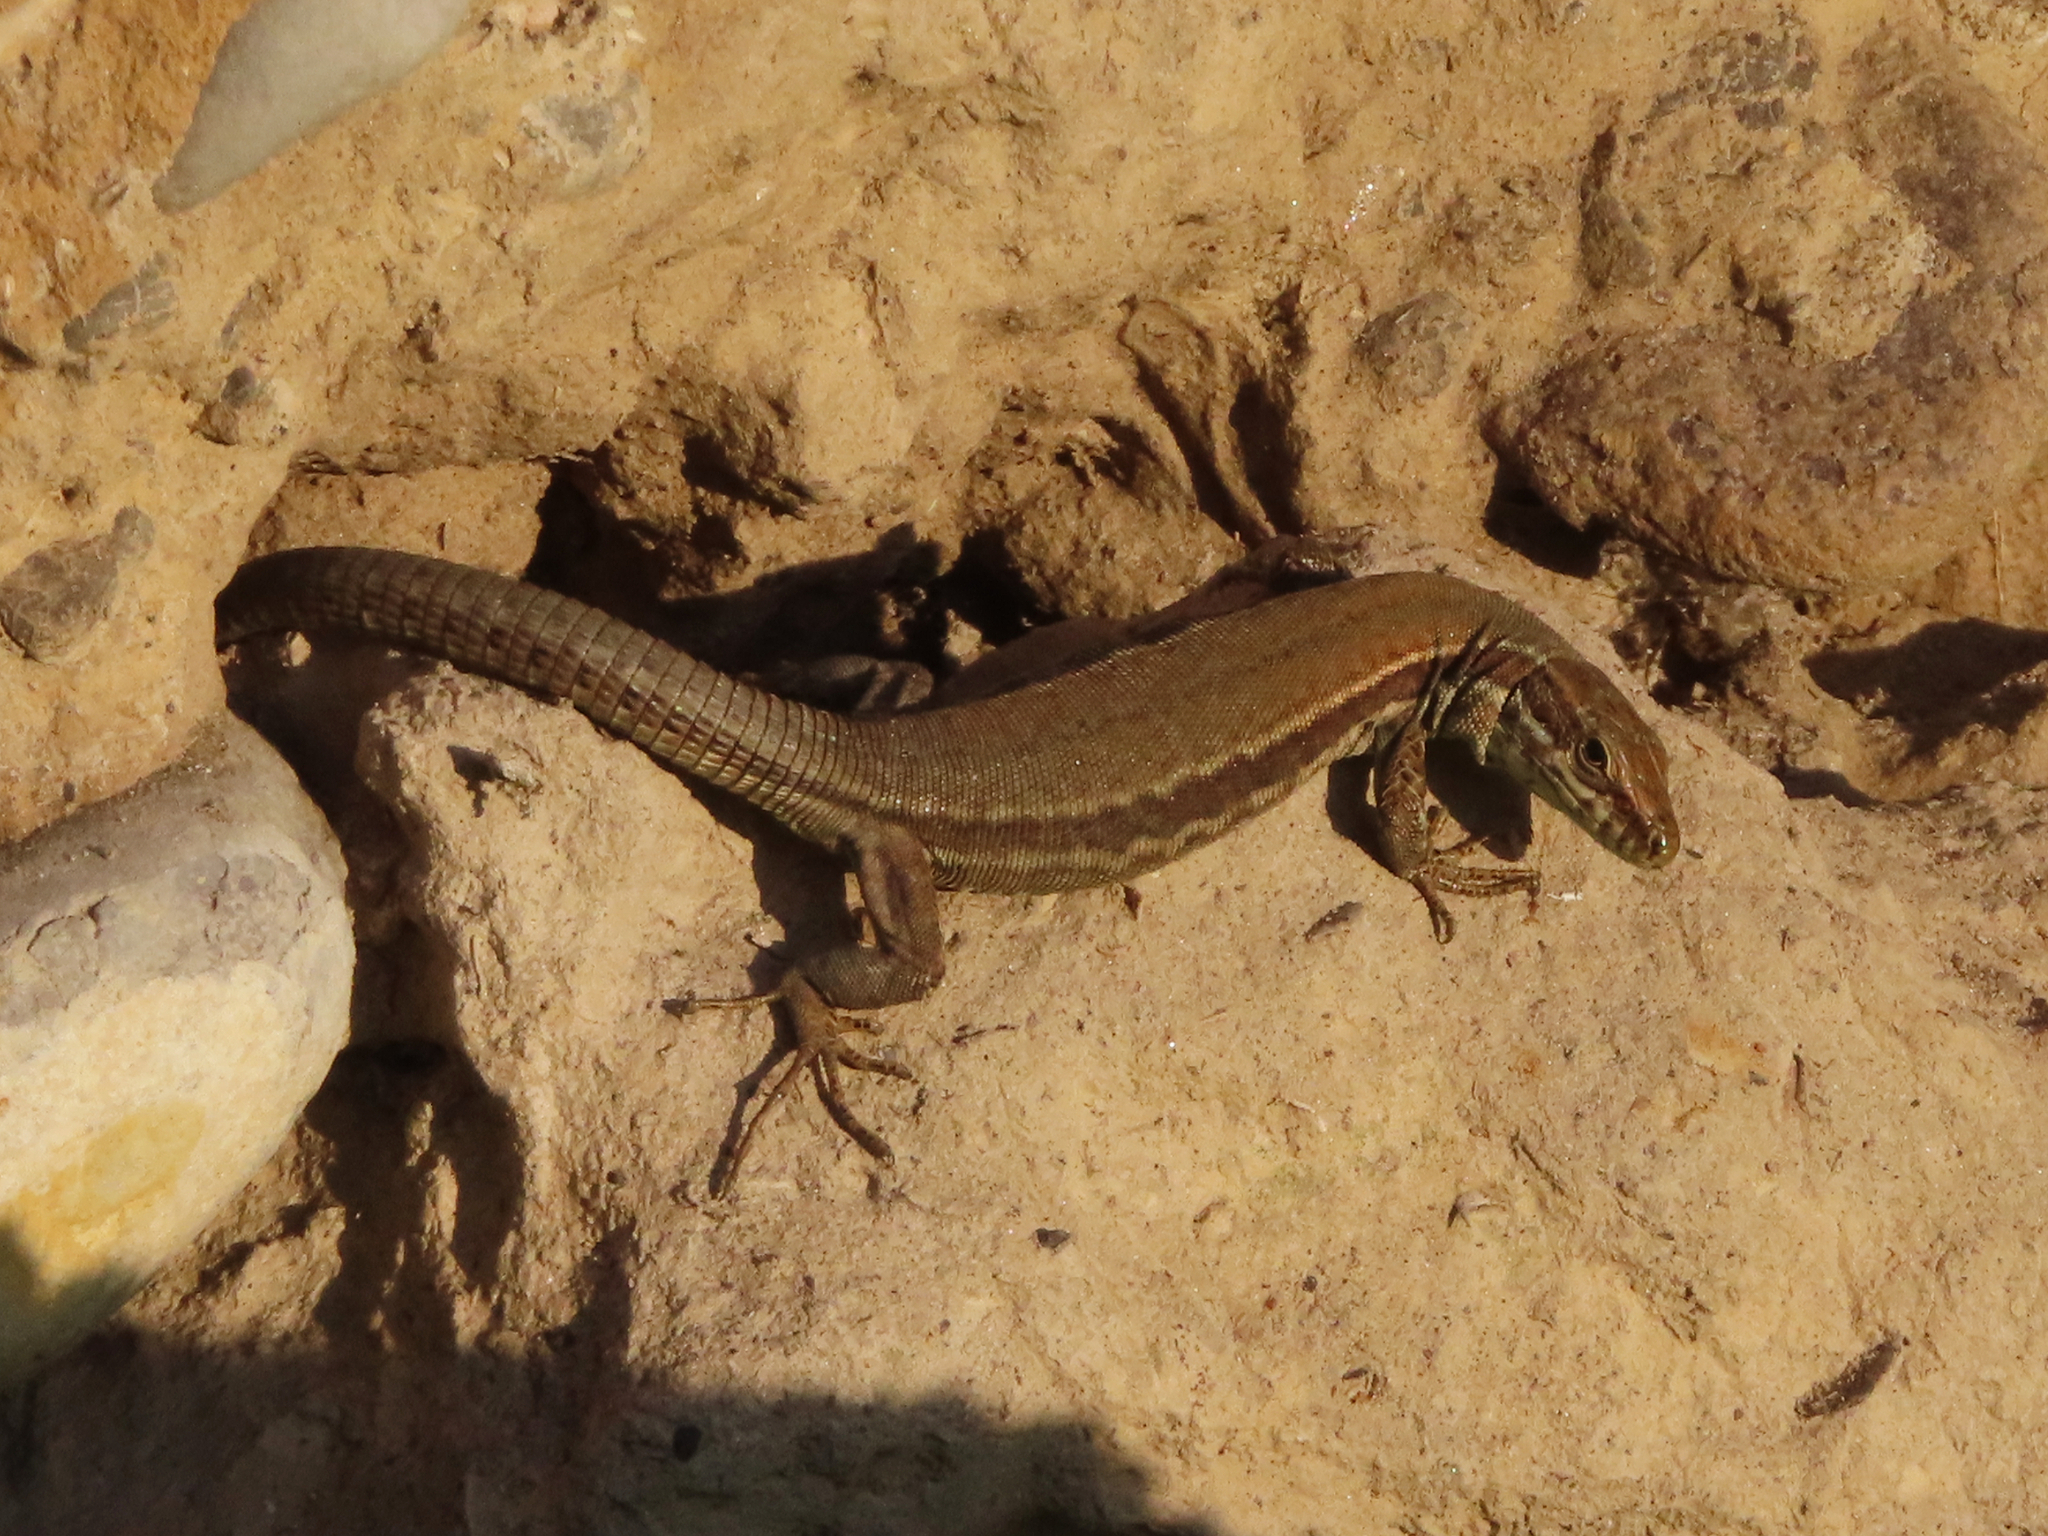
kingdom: Animalia
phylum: Chordata
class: Squamata
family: Lacertidae
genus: Podarcis
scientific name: Podarcis muralis
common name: Common wall lizard
